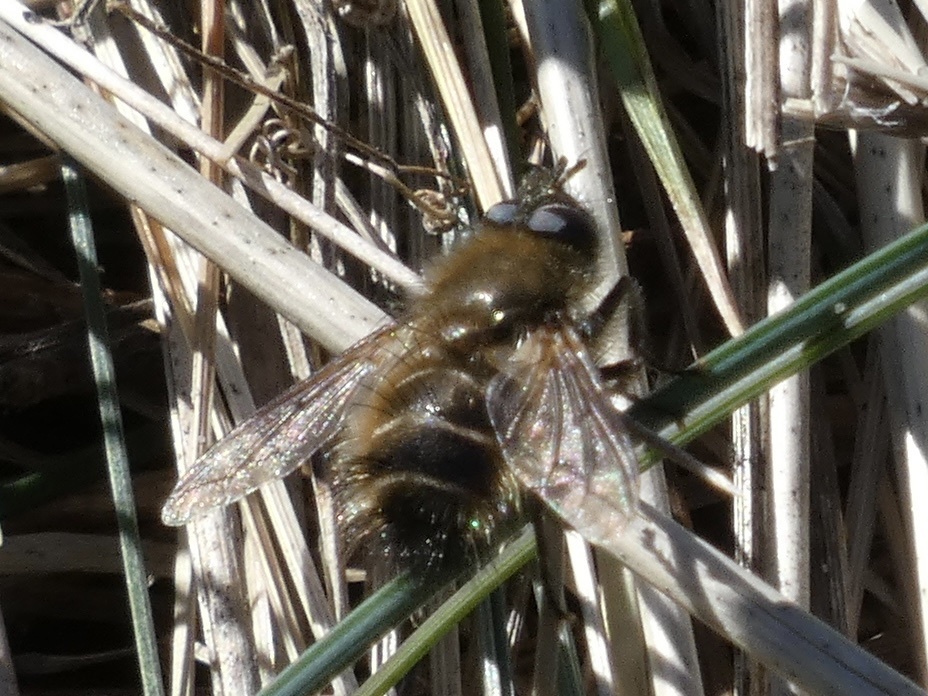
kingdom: Animalia
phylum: Arthropoda
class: Insecta
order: Diptera
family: Tachinidae
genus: Tachina
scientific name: Tachina ursina
